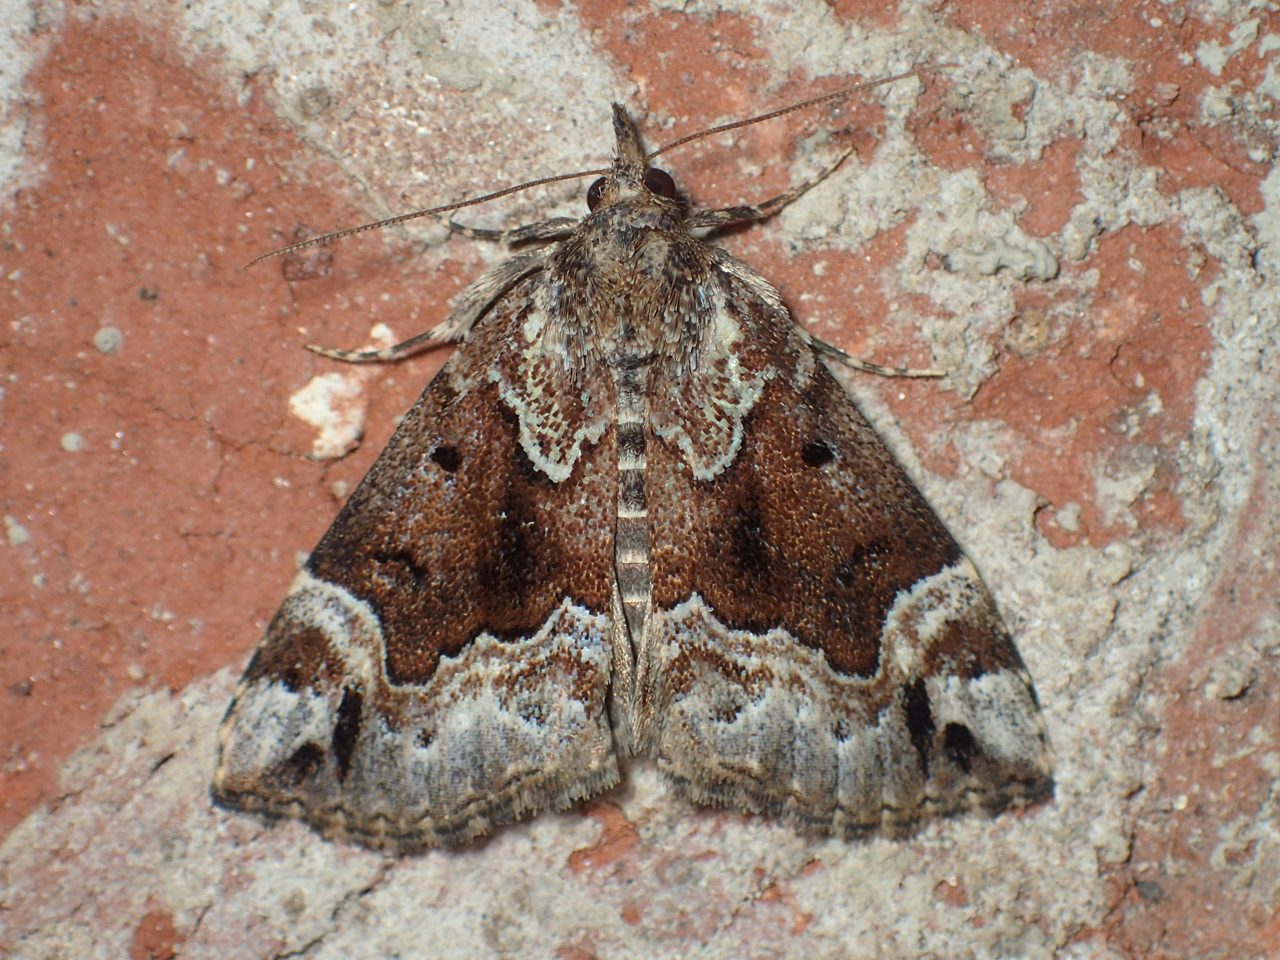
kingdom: Animalia
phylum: Arthropoda
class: Insecta
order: Lepidoptera
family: Erebidae
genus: Hypena
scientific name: Hypena palparia
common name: Mottled bomolocha moth
